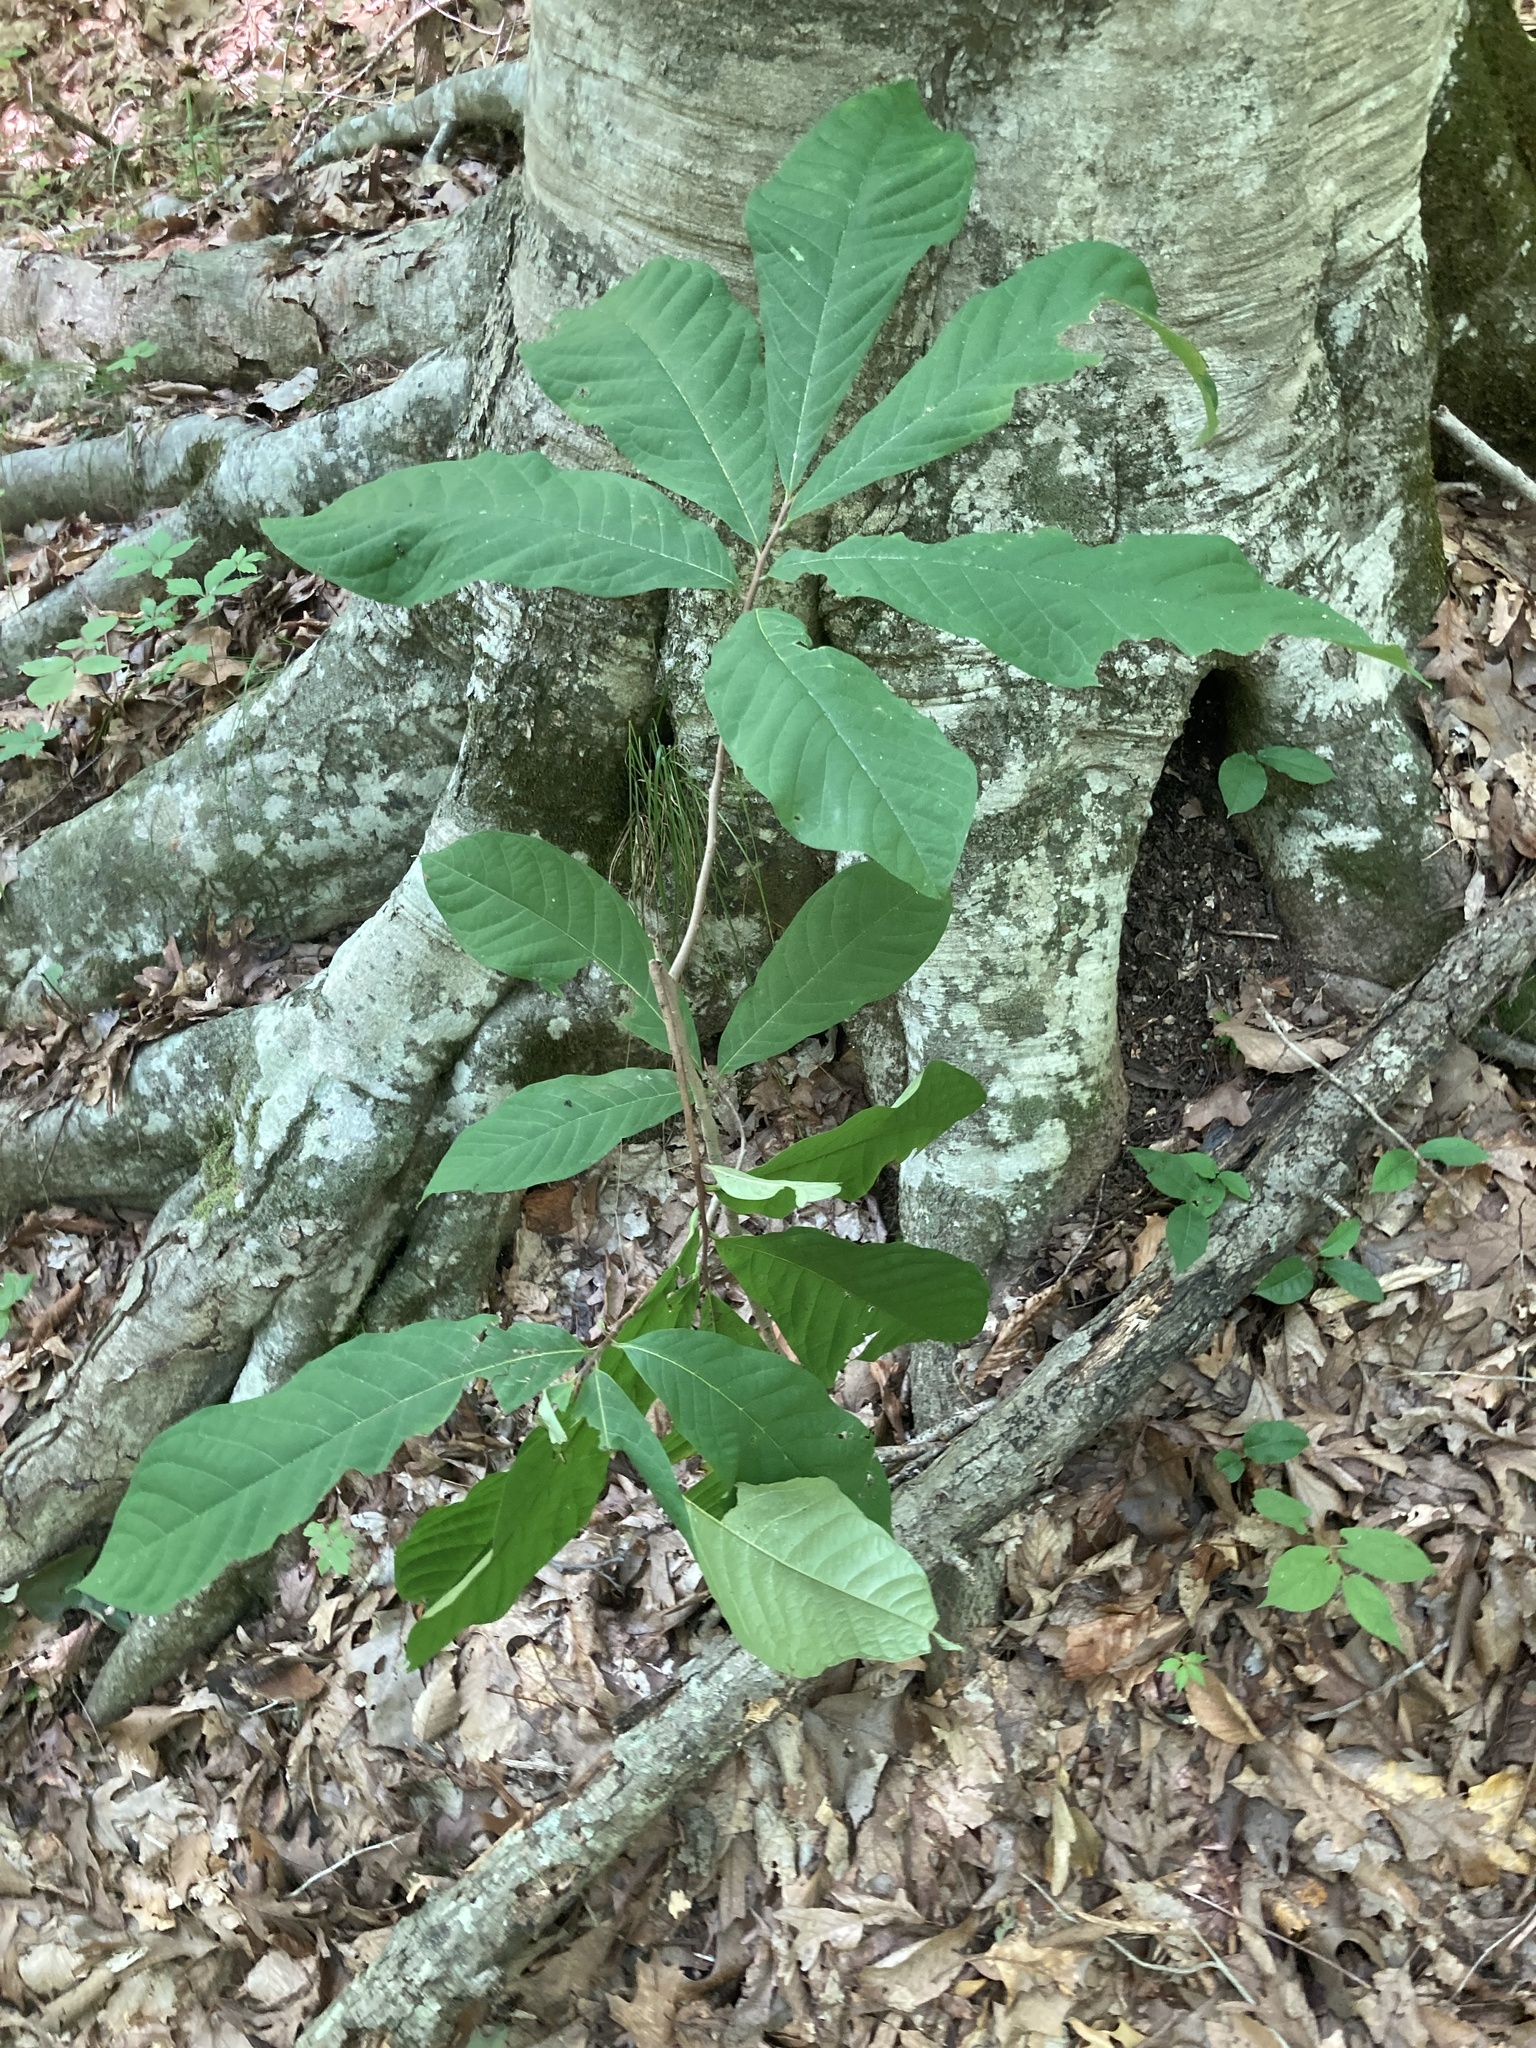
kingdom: Plantae
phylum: Tracheophyta
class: Magnoliopsida
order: Magnoliales
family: Annonaceae
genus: Asimina
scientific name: Asimina triloba
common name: Dog-banana
